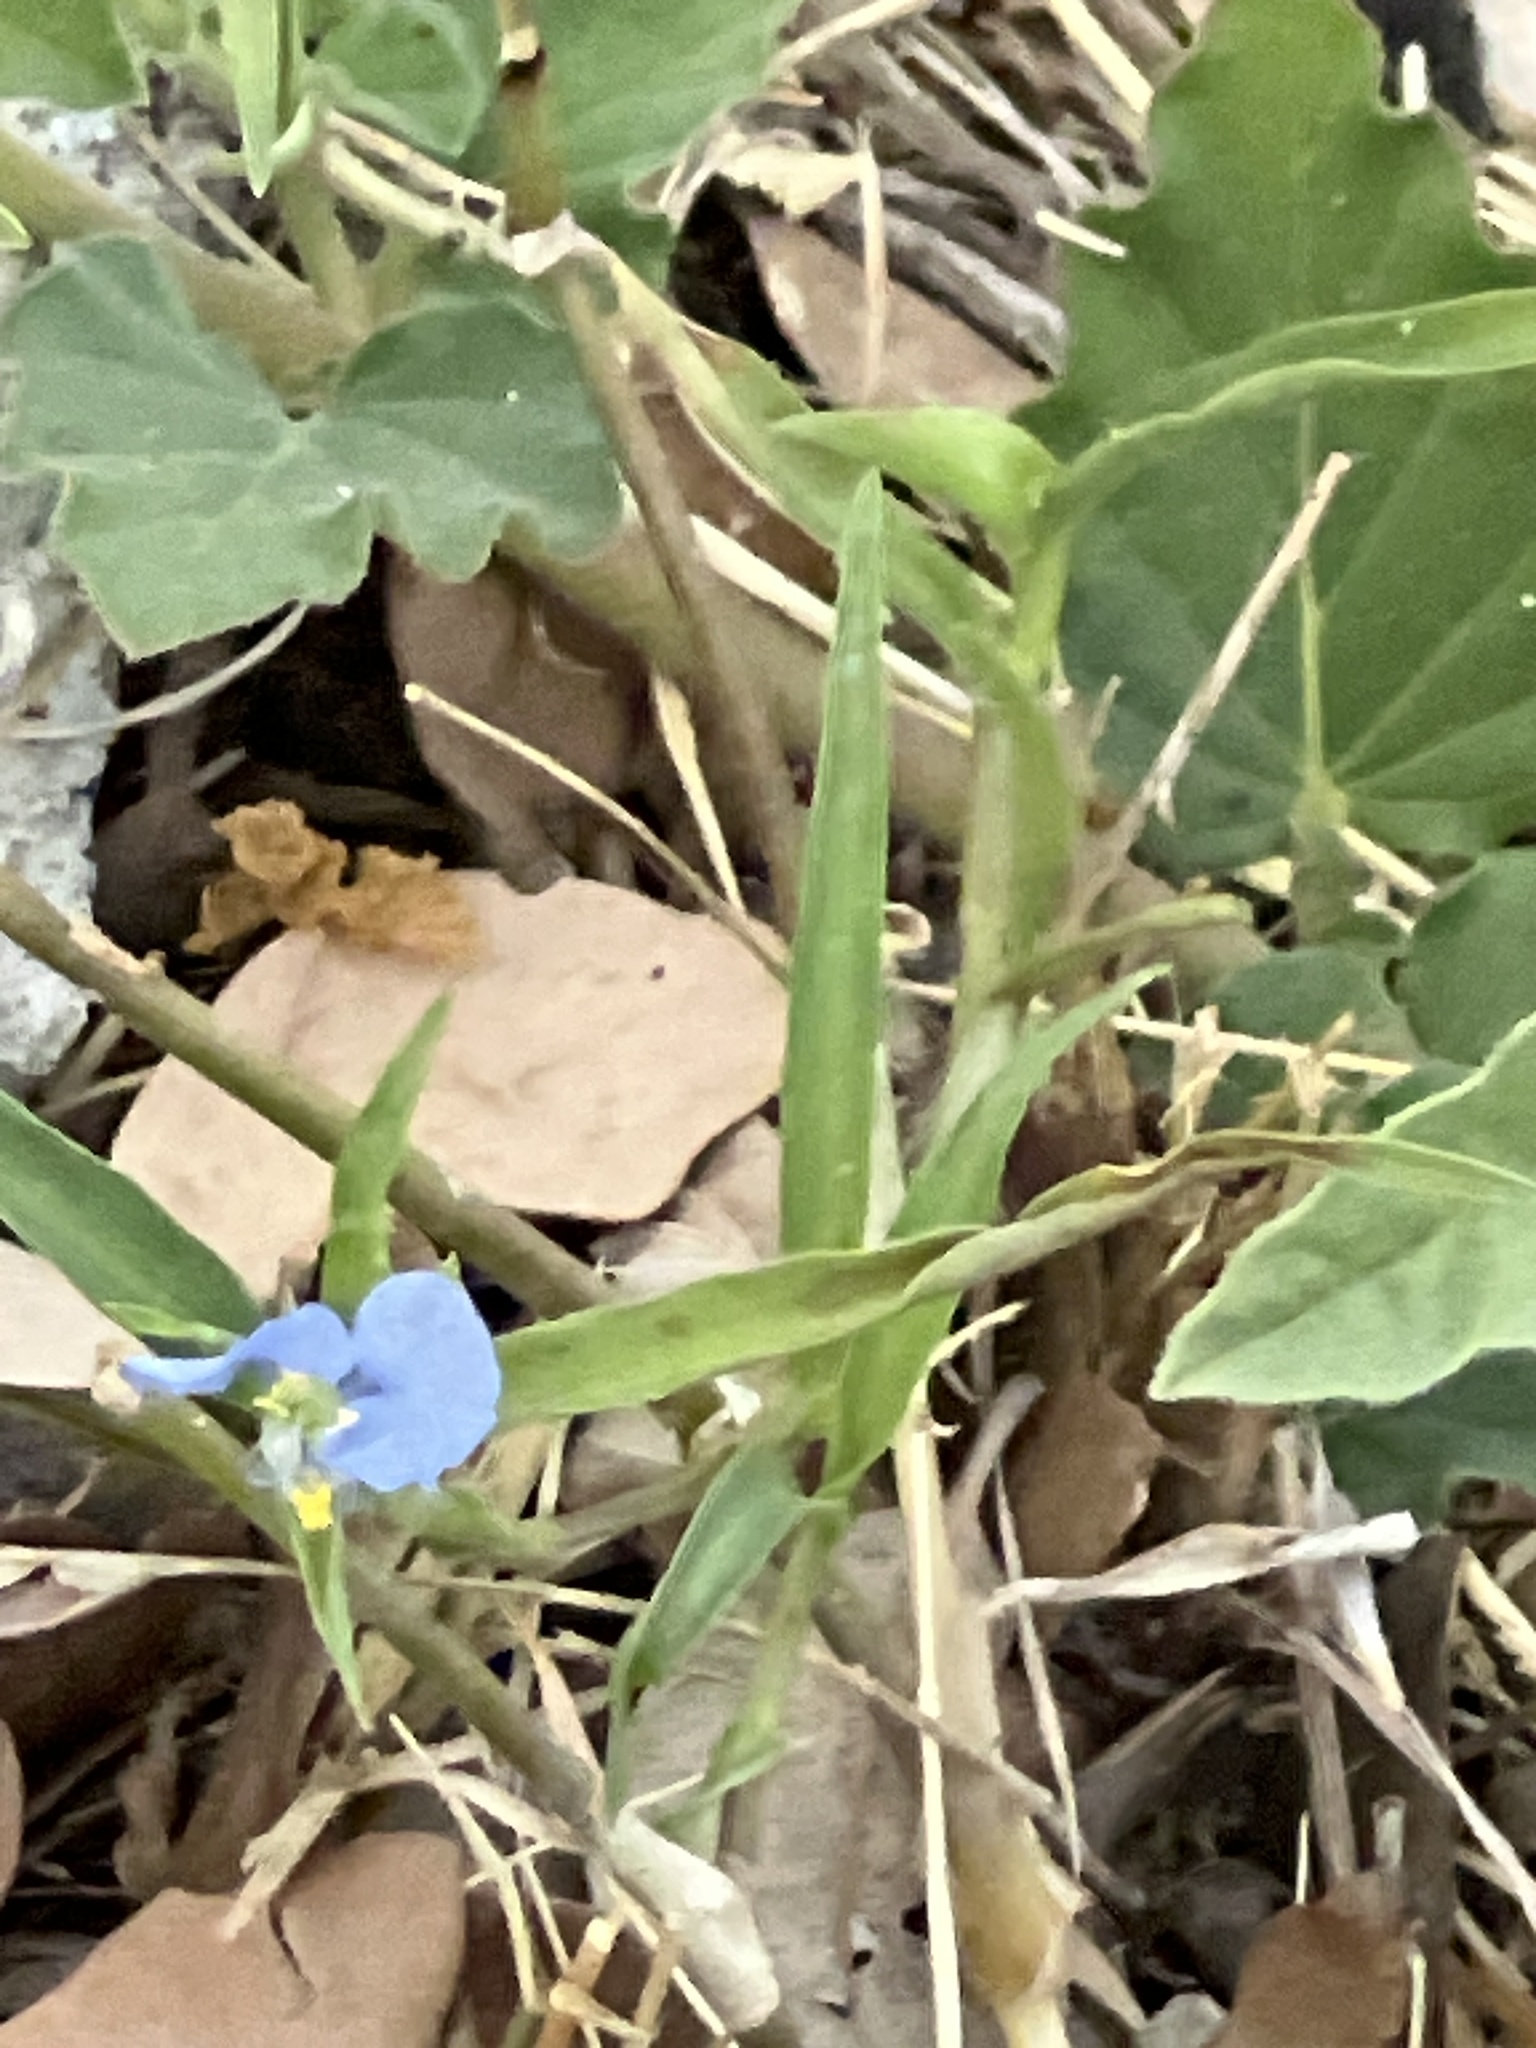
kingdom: Plantae
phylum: Tracheophyta
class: Liliopsida
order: Commelinales
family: Commelinaceae
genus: Commelina
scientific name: Commelina erecta
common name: Blousel blommetjie
